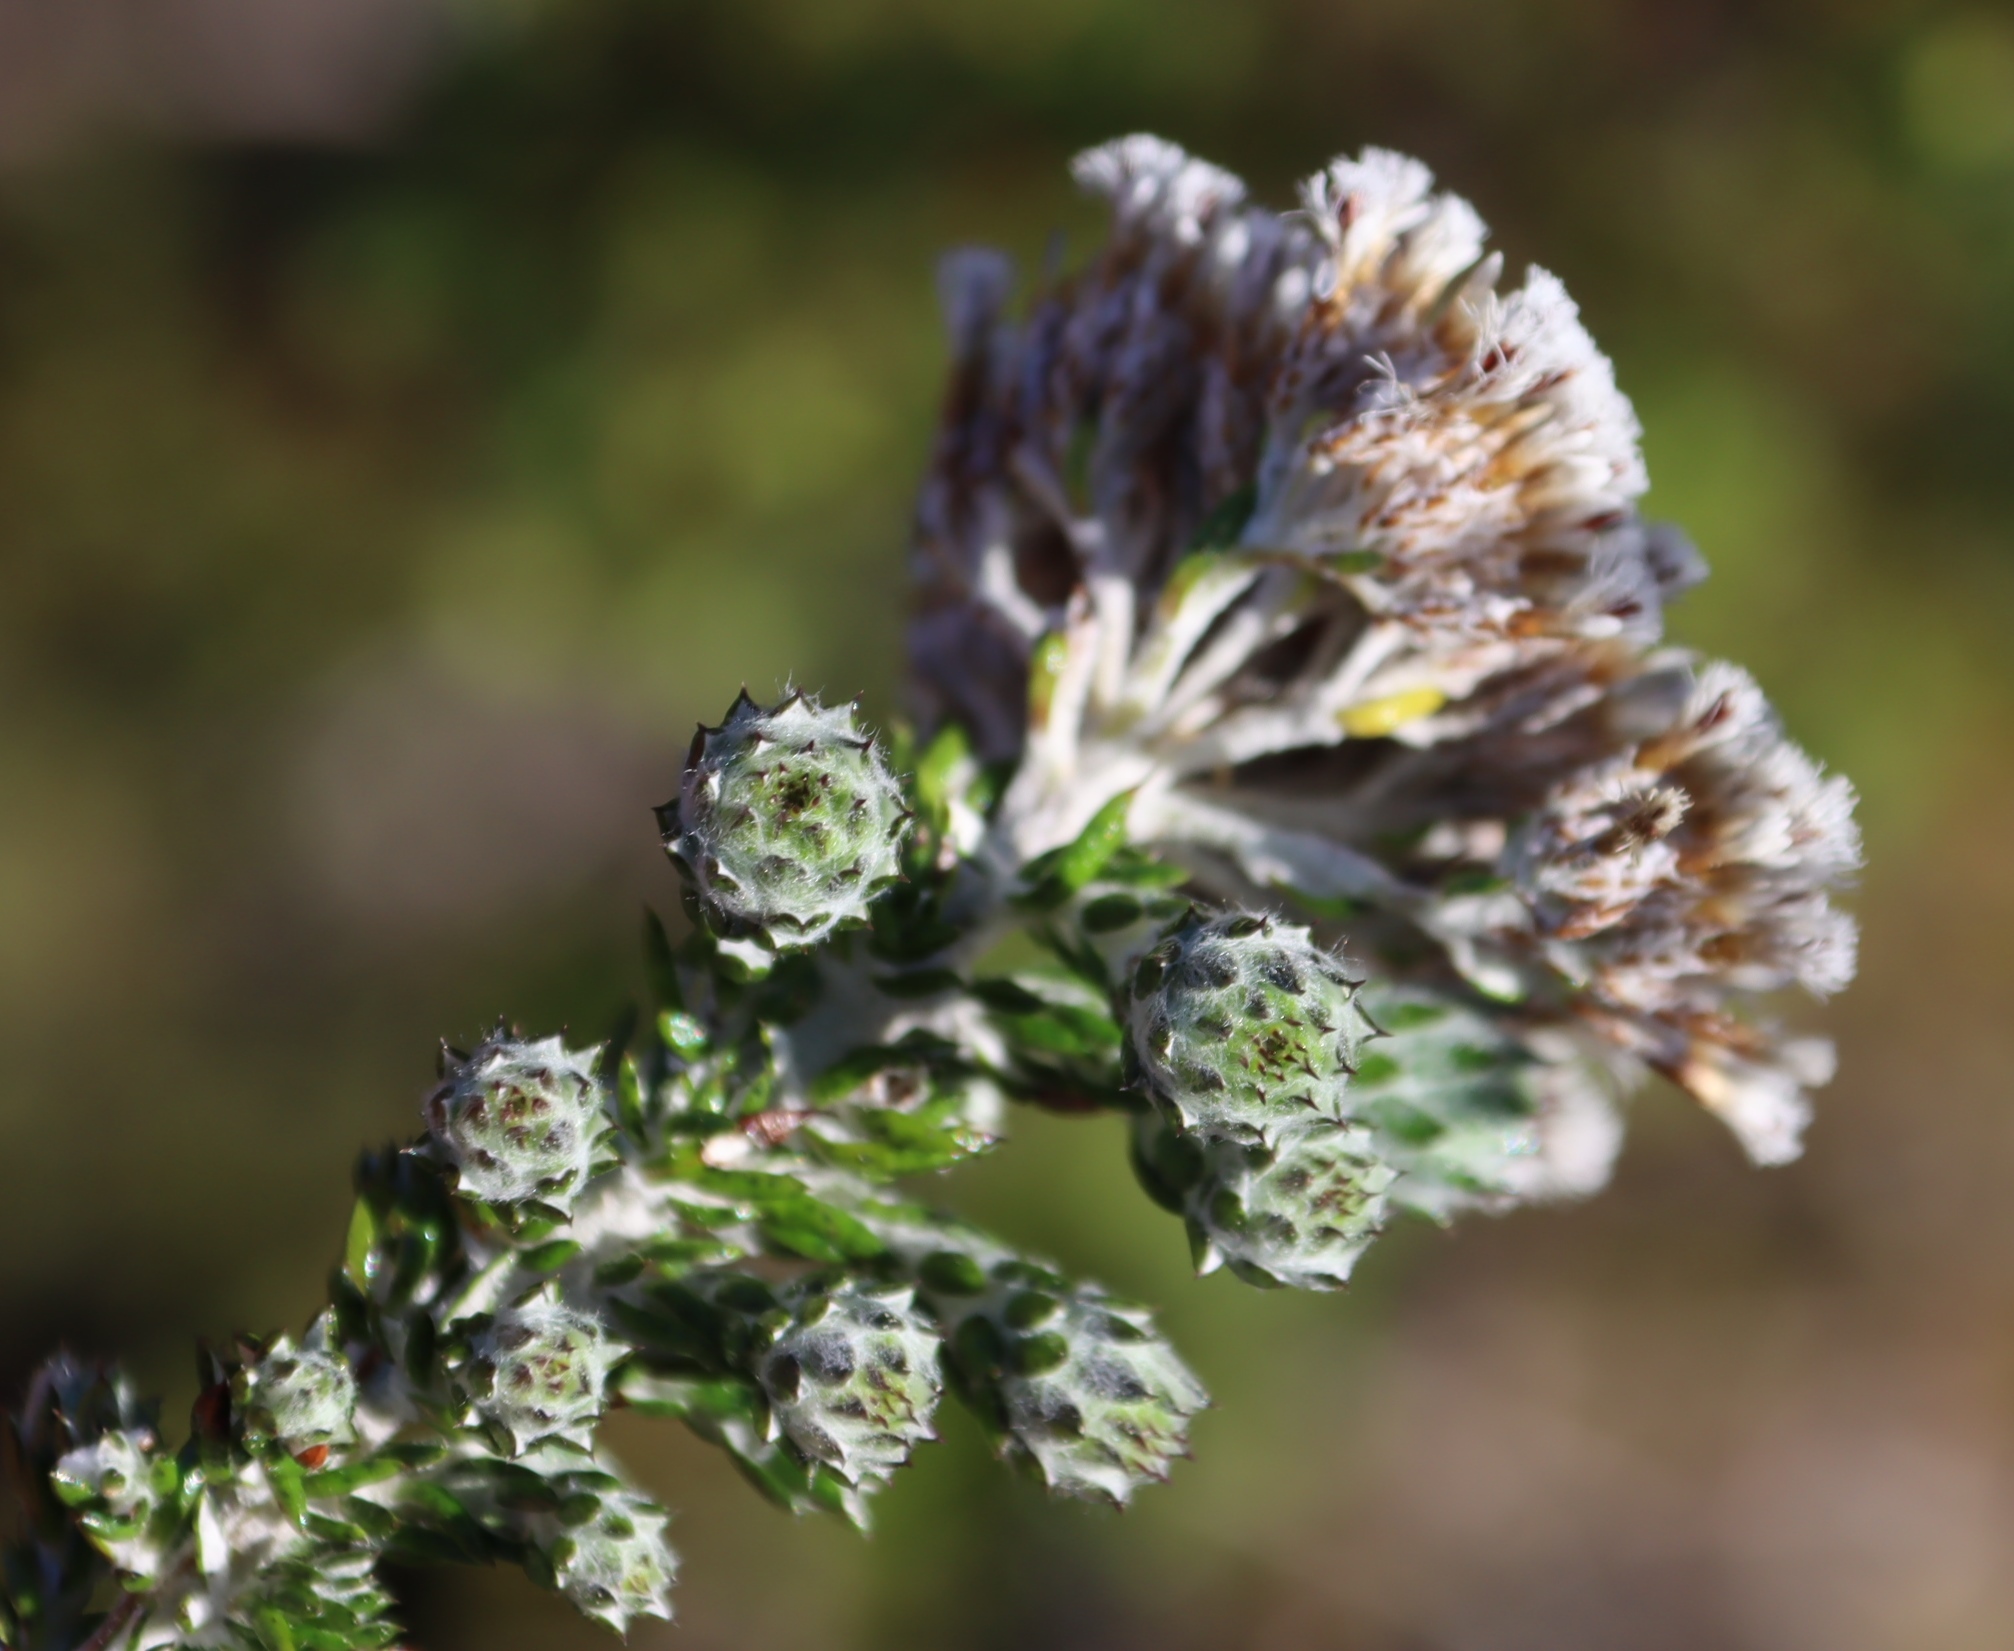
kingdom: Plantae
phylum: Tracheophyta
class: Magnoliopsida
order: Asterales
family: Asteraceae
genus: Metalasia
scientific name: Metalasia pungens
